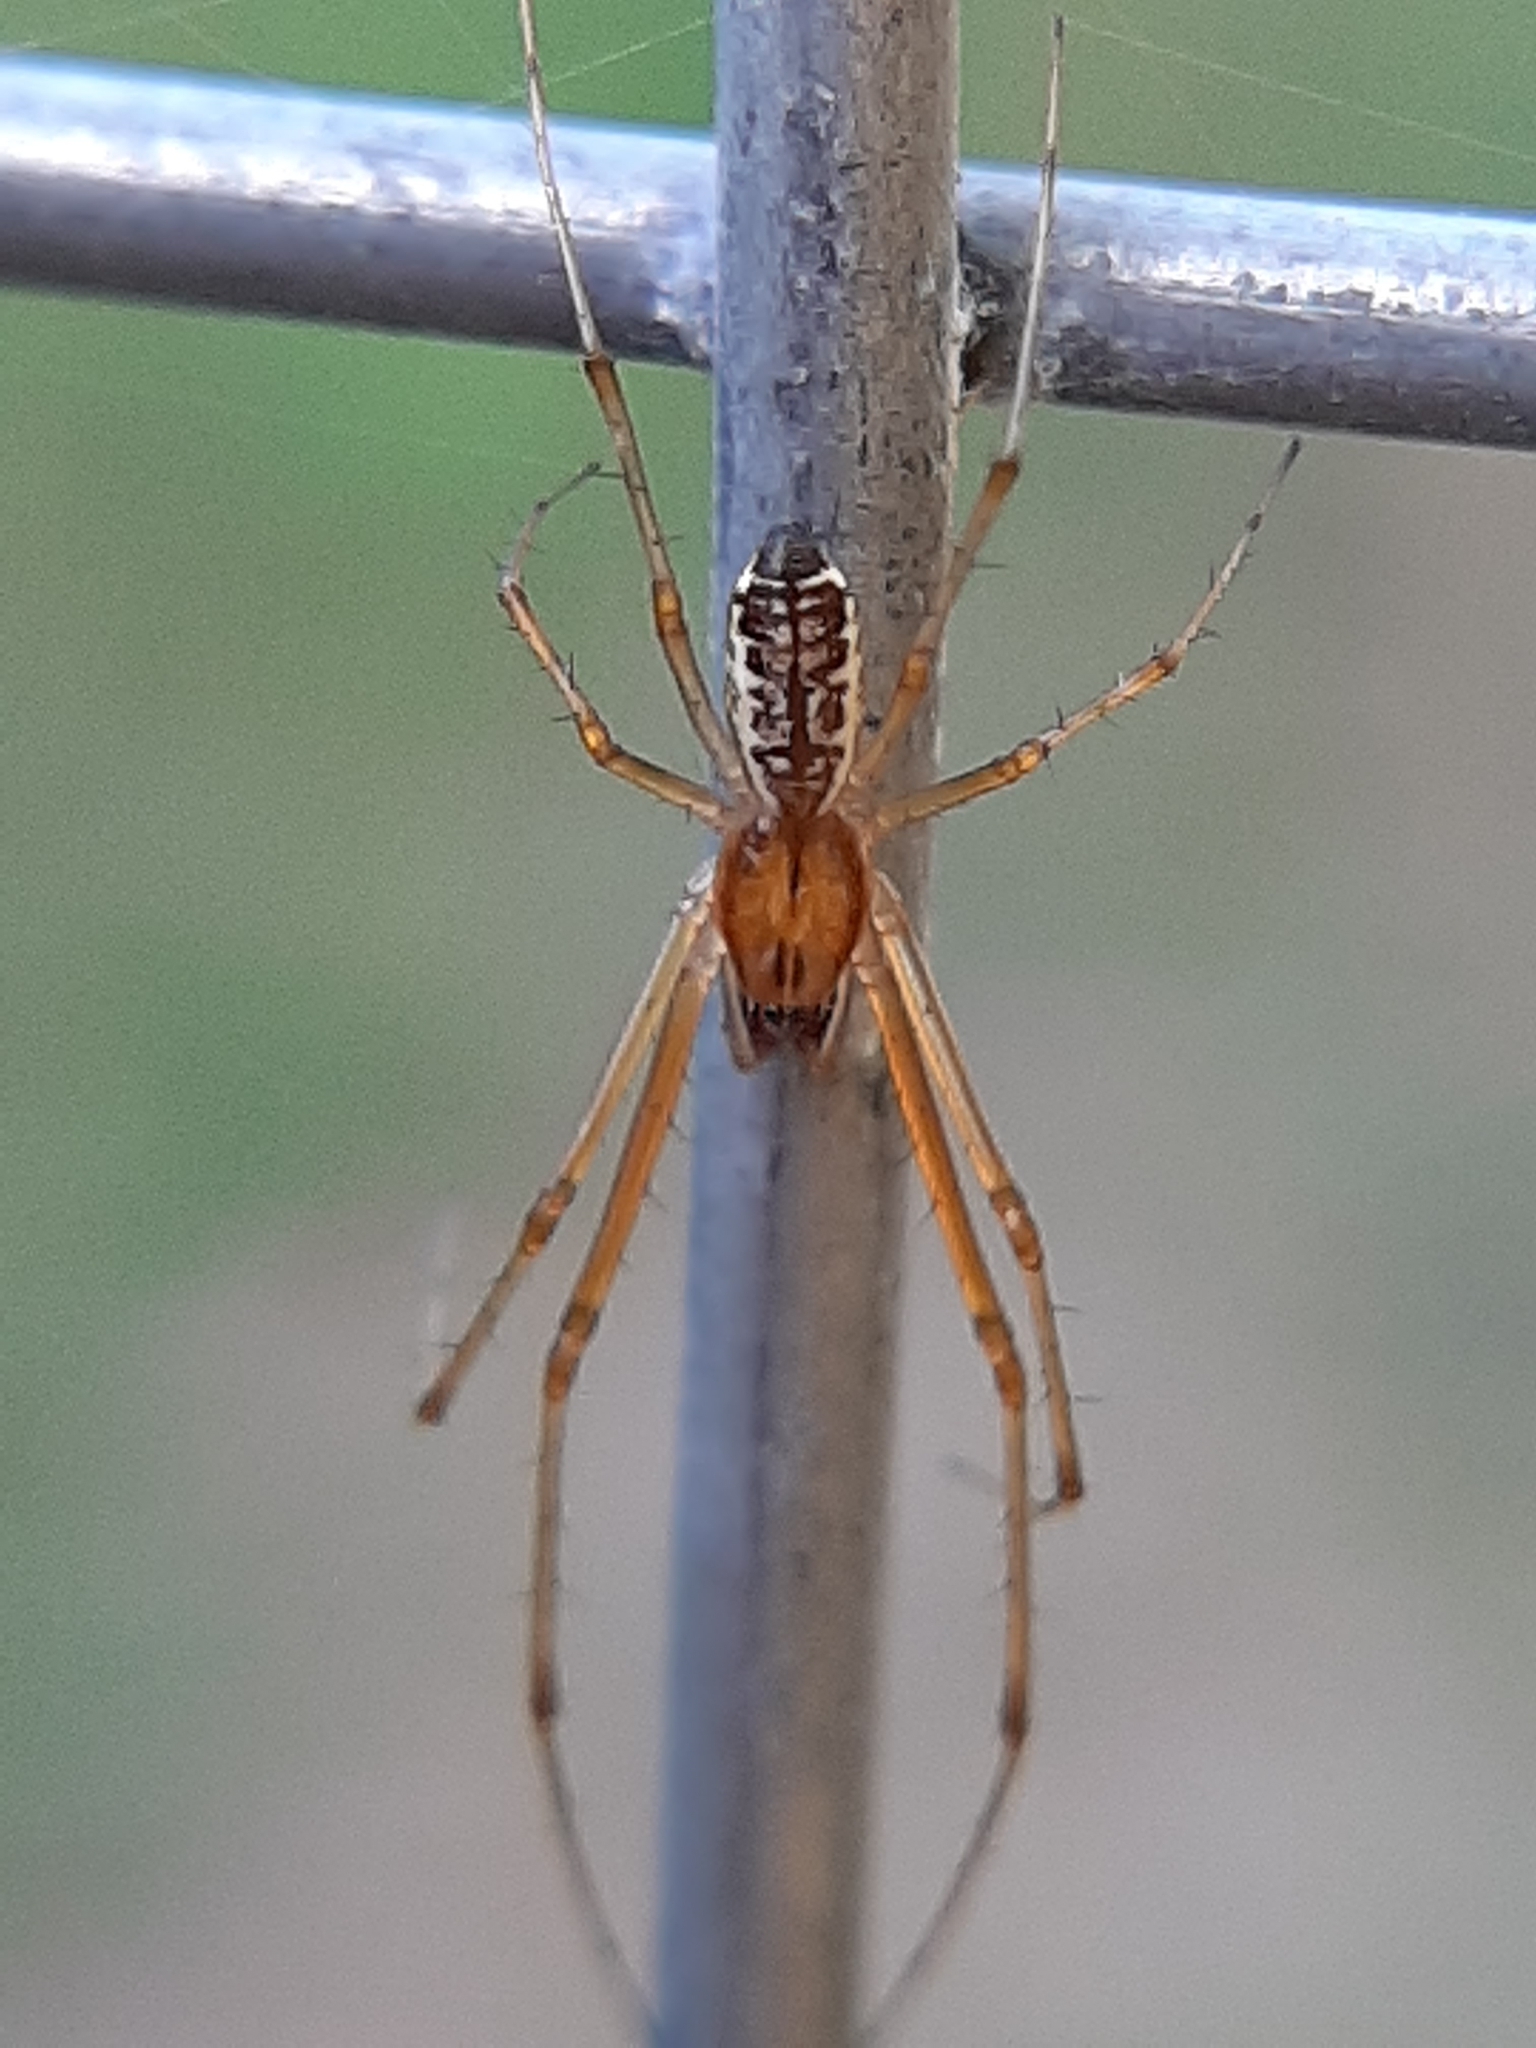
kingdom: Animalia
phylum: Arthropoda
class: Arachnida
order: Araneae
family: Linyphiidae
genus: Linyphia
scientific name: Linyphia triangularis
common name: Money spider
